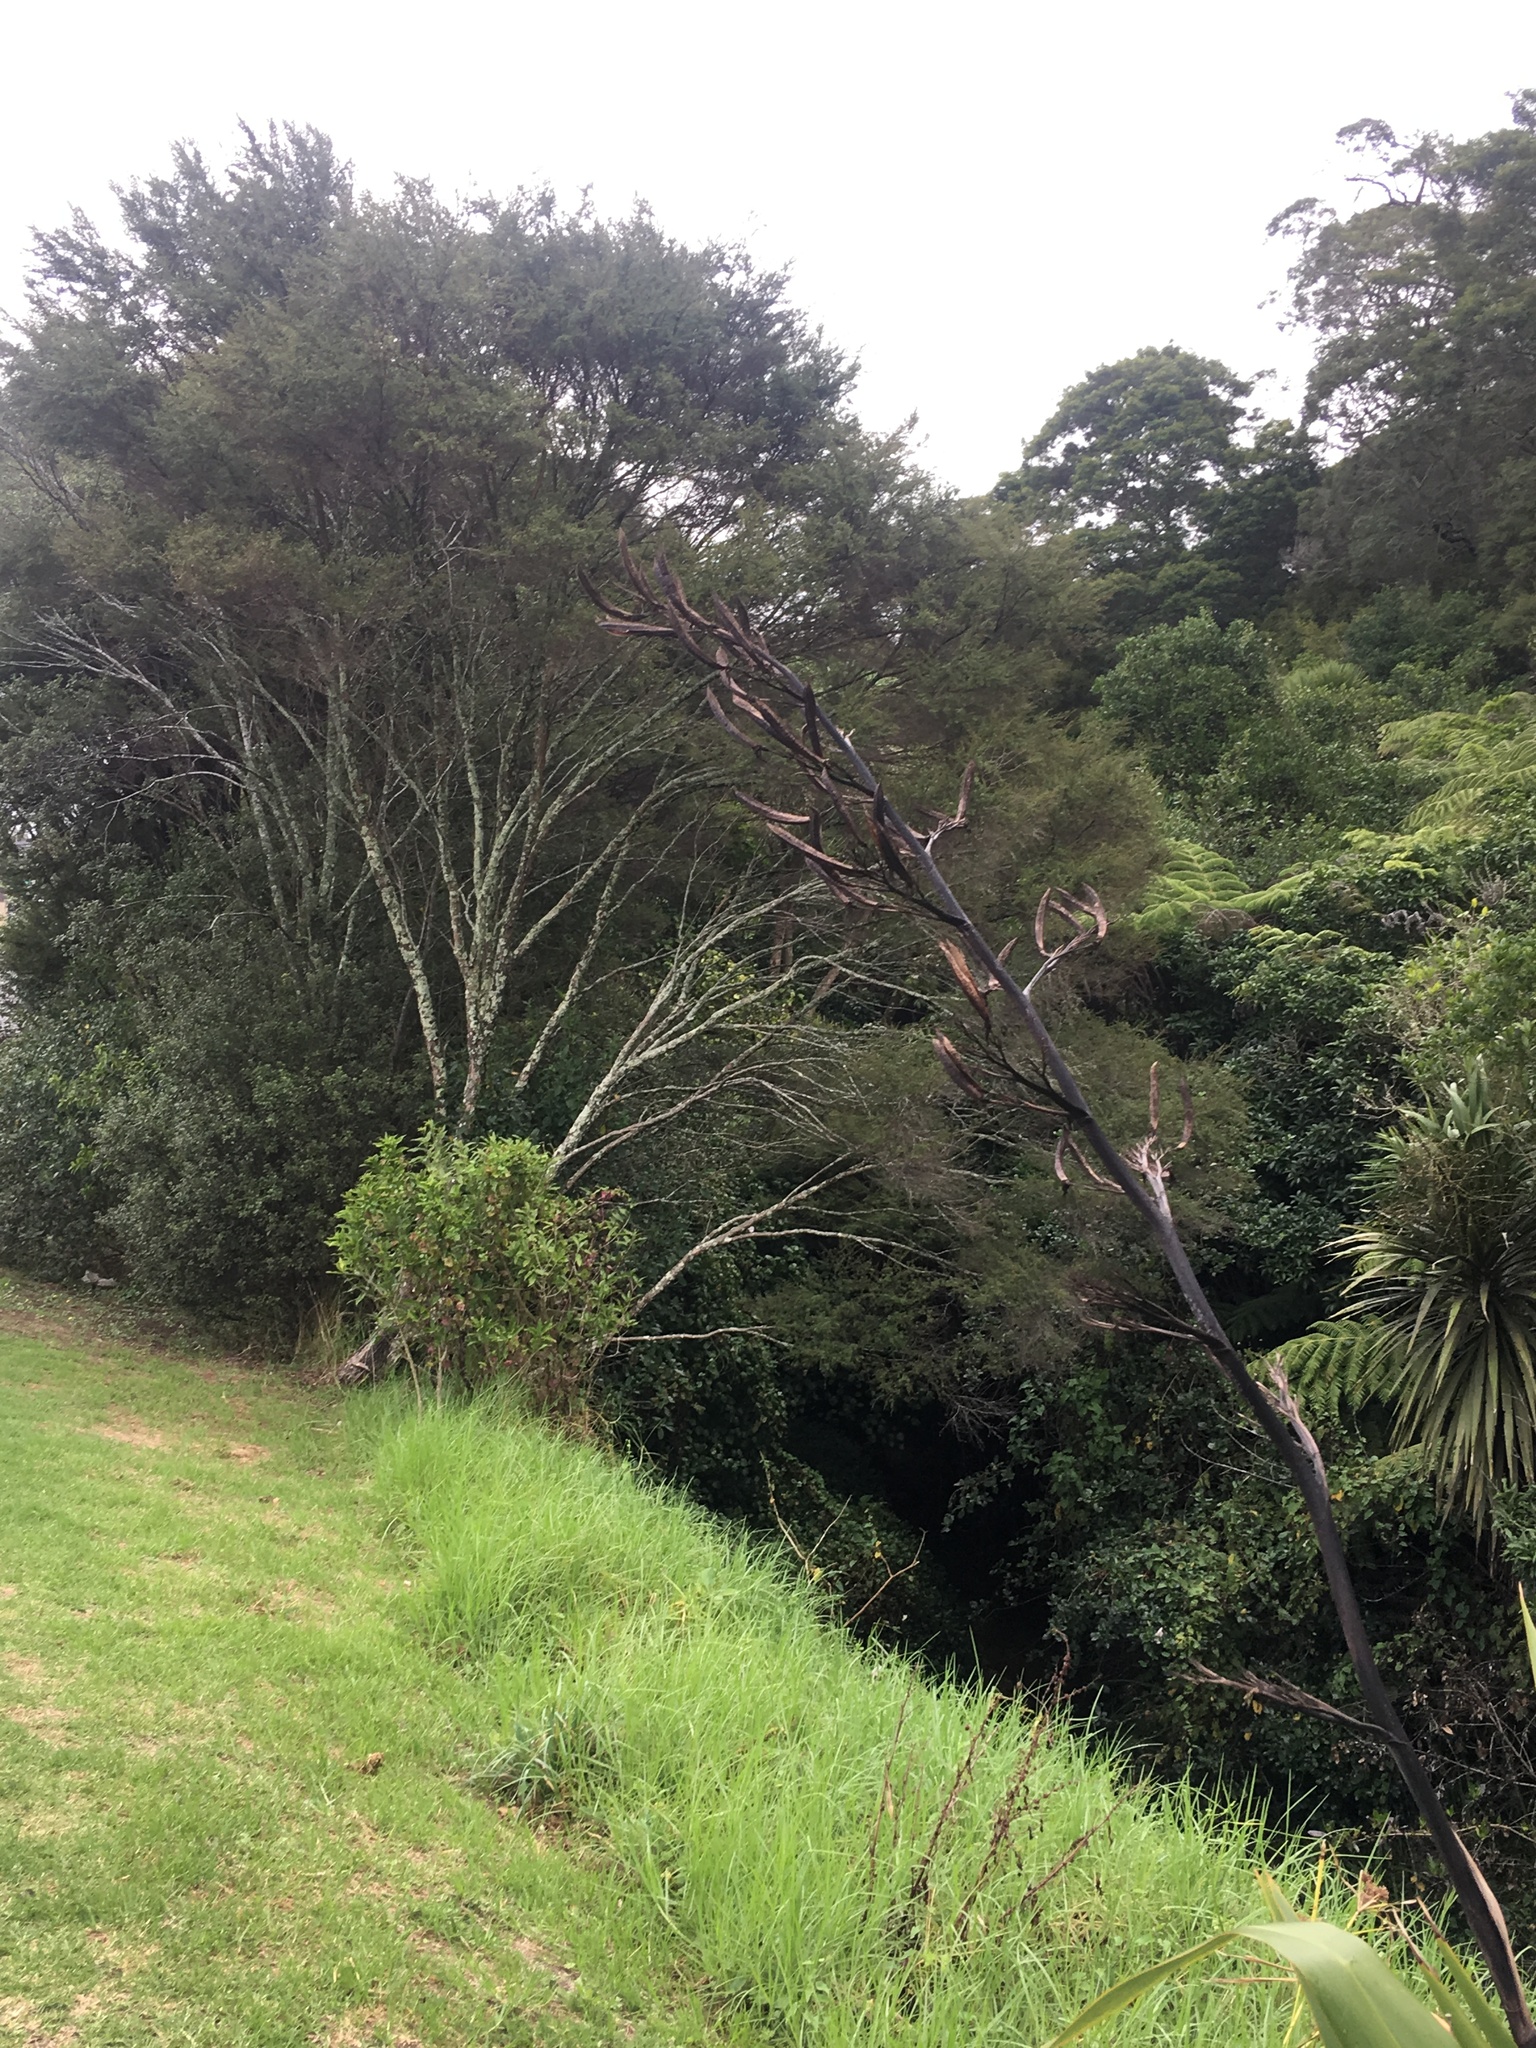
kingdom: Plantae
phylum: Tracheophyta
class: Liliopsida
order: Poales
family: Poaceae
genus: Cenchrus
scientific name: Cenchrus clandestinus
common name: Kikuyugrass
